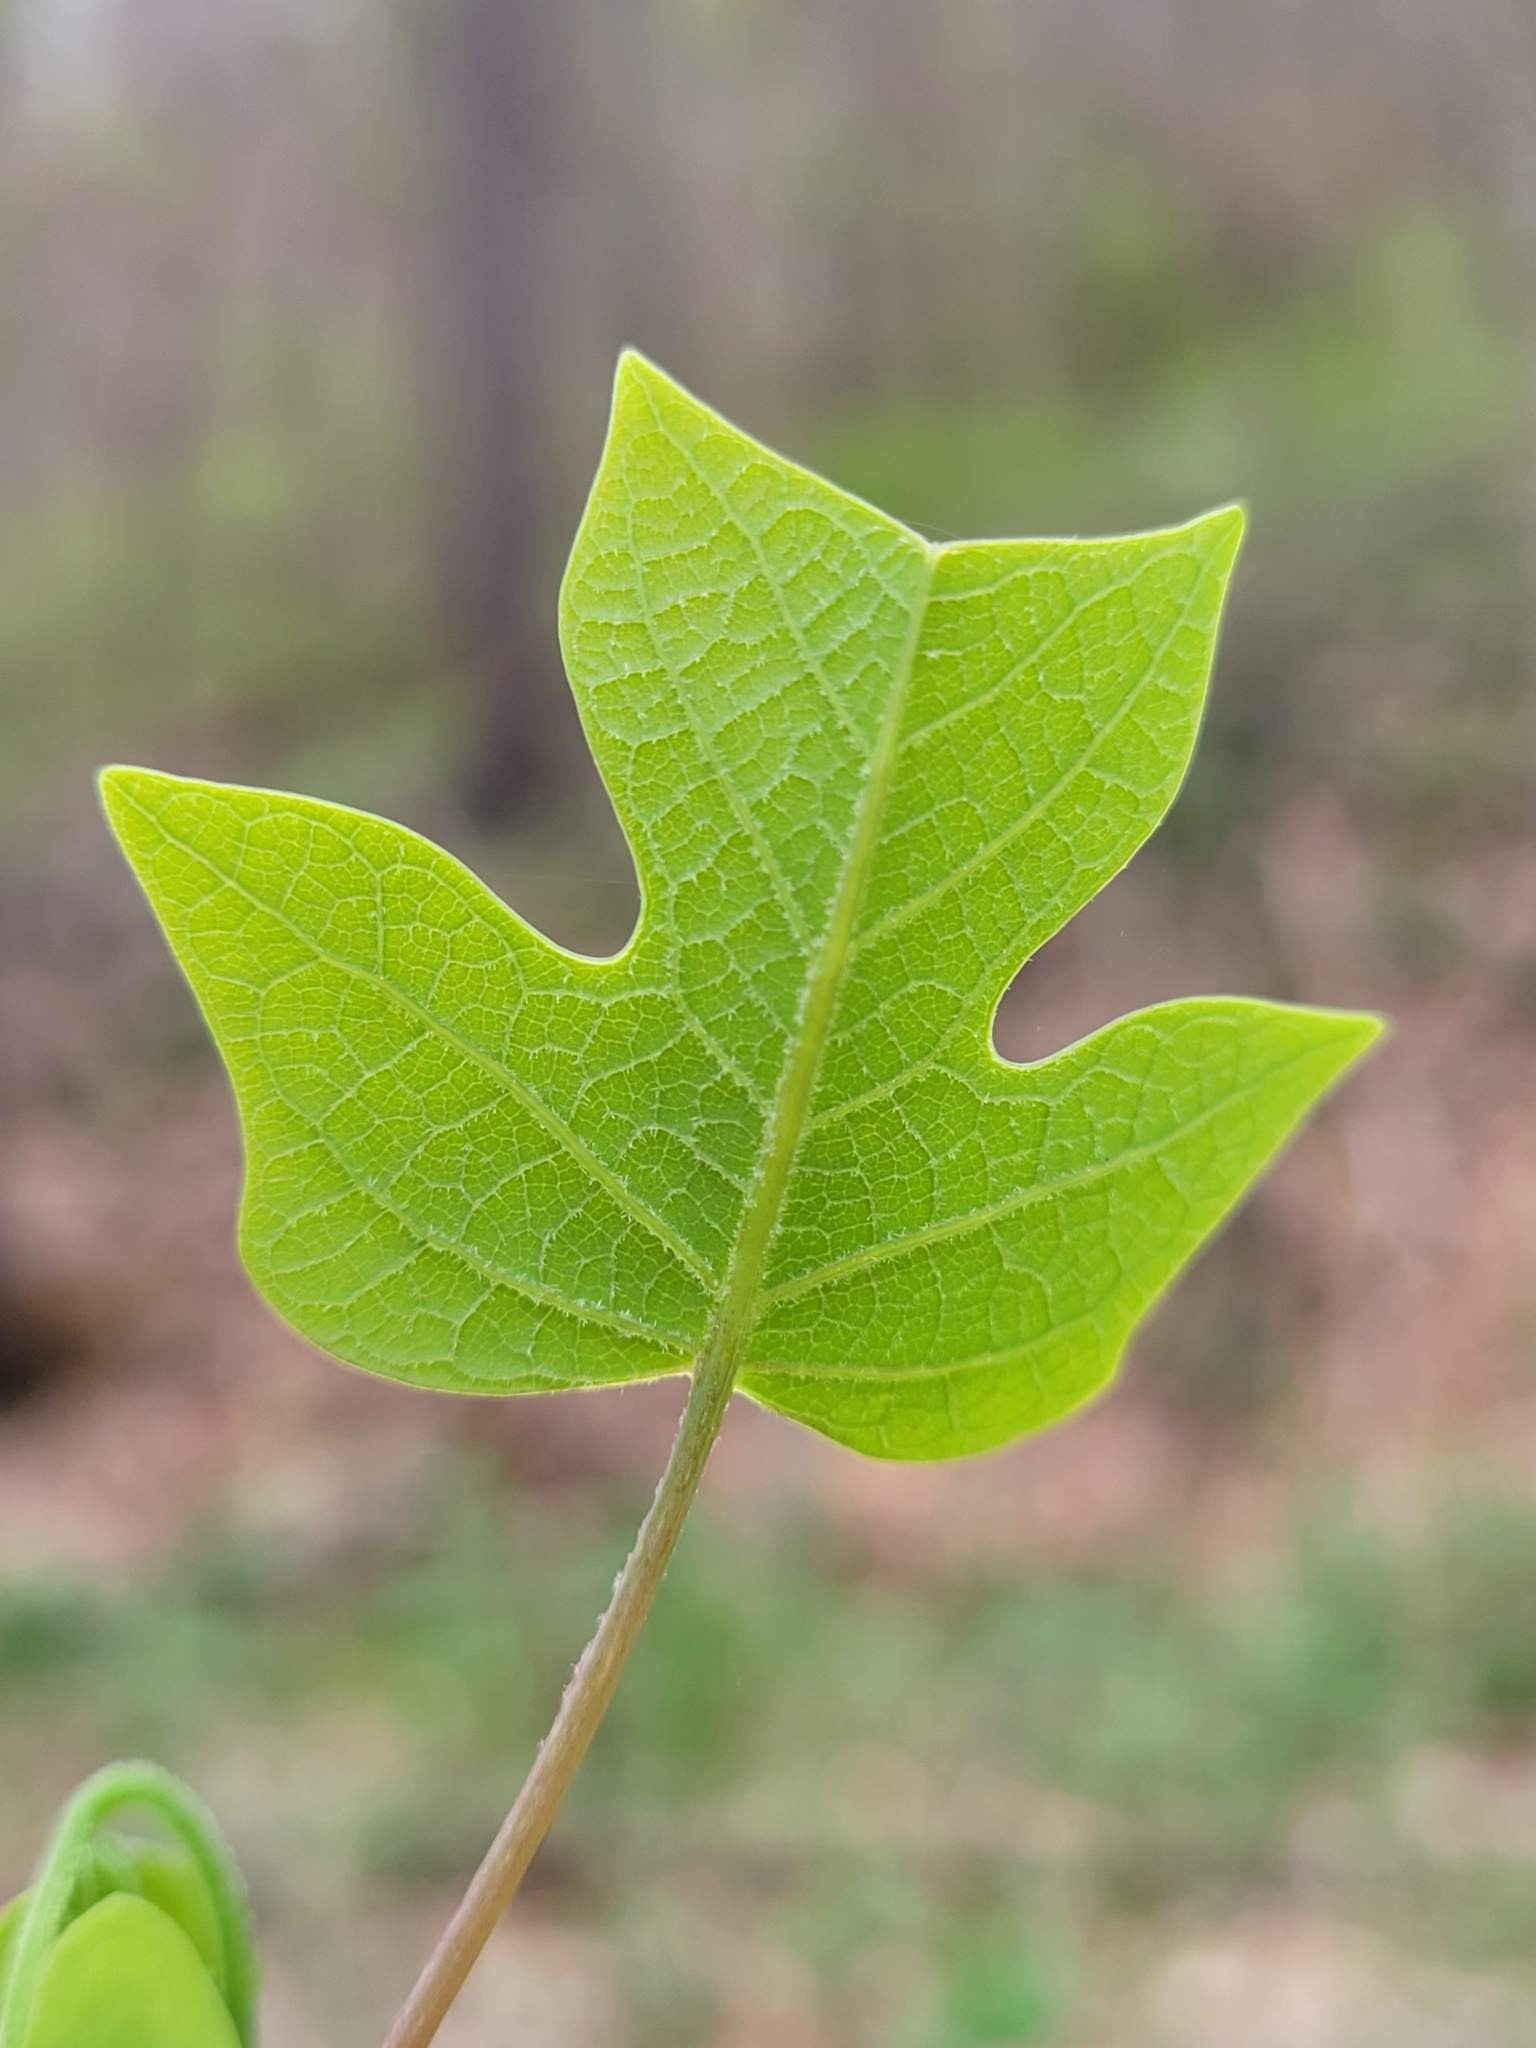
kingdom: Plantae
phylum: Tracheophyta
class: Magnoliopsida
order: Magnoliales
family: Magnoliaceae
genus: Liriodendron
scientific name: Liriodendron tulipifera
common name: Tulip tree
